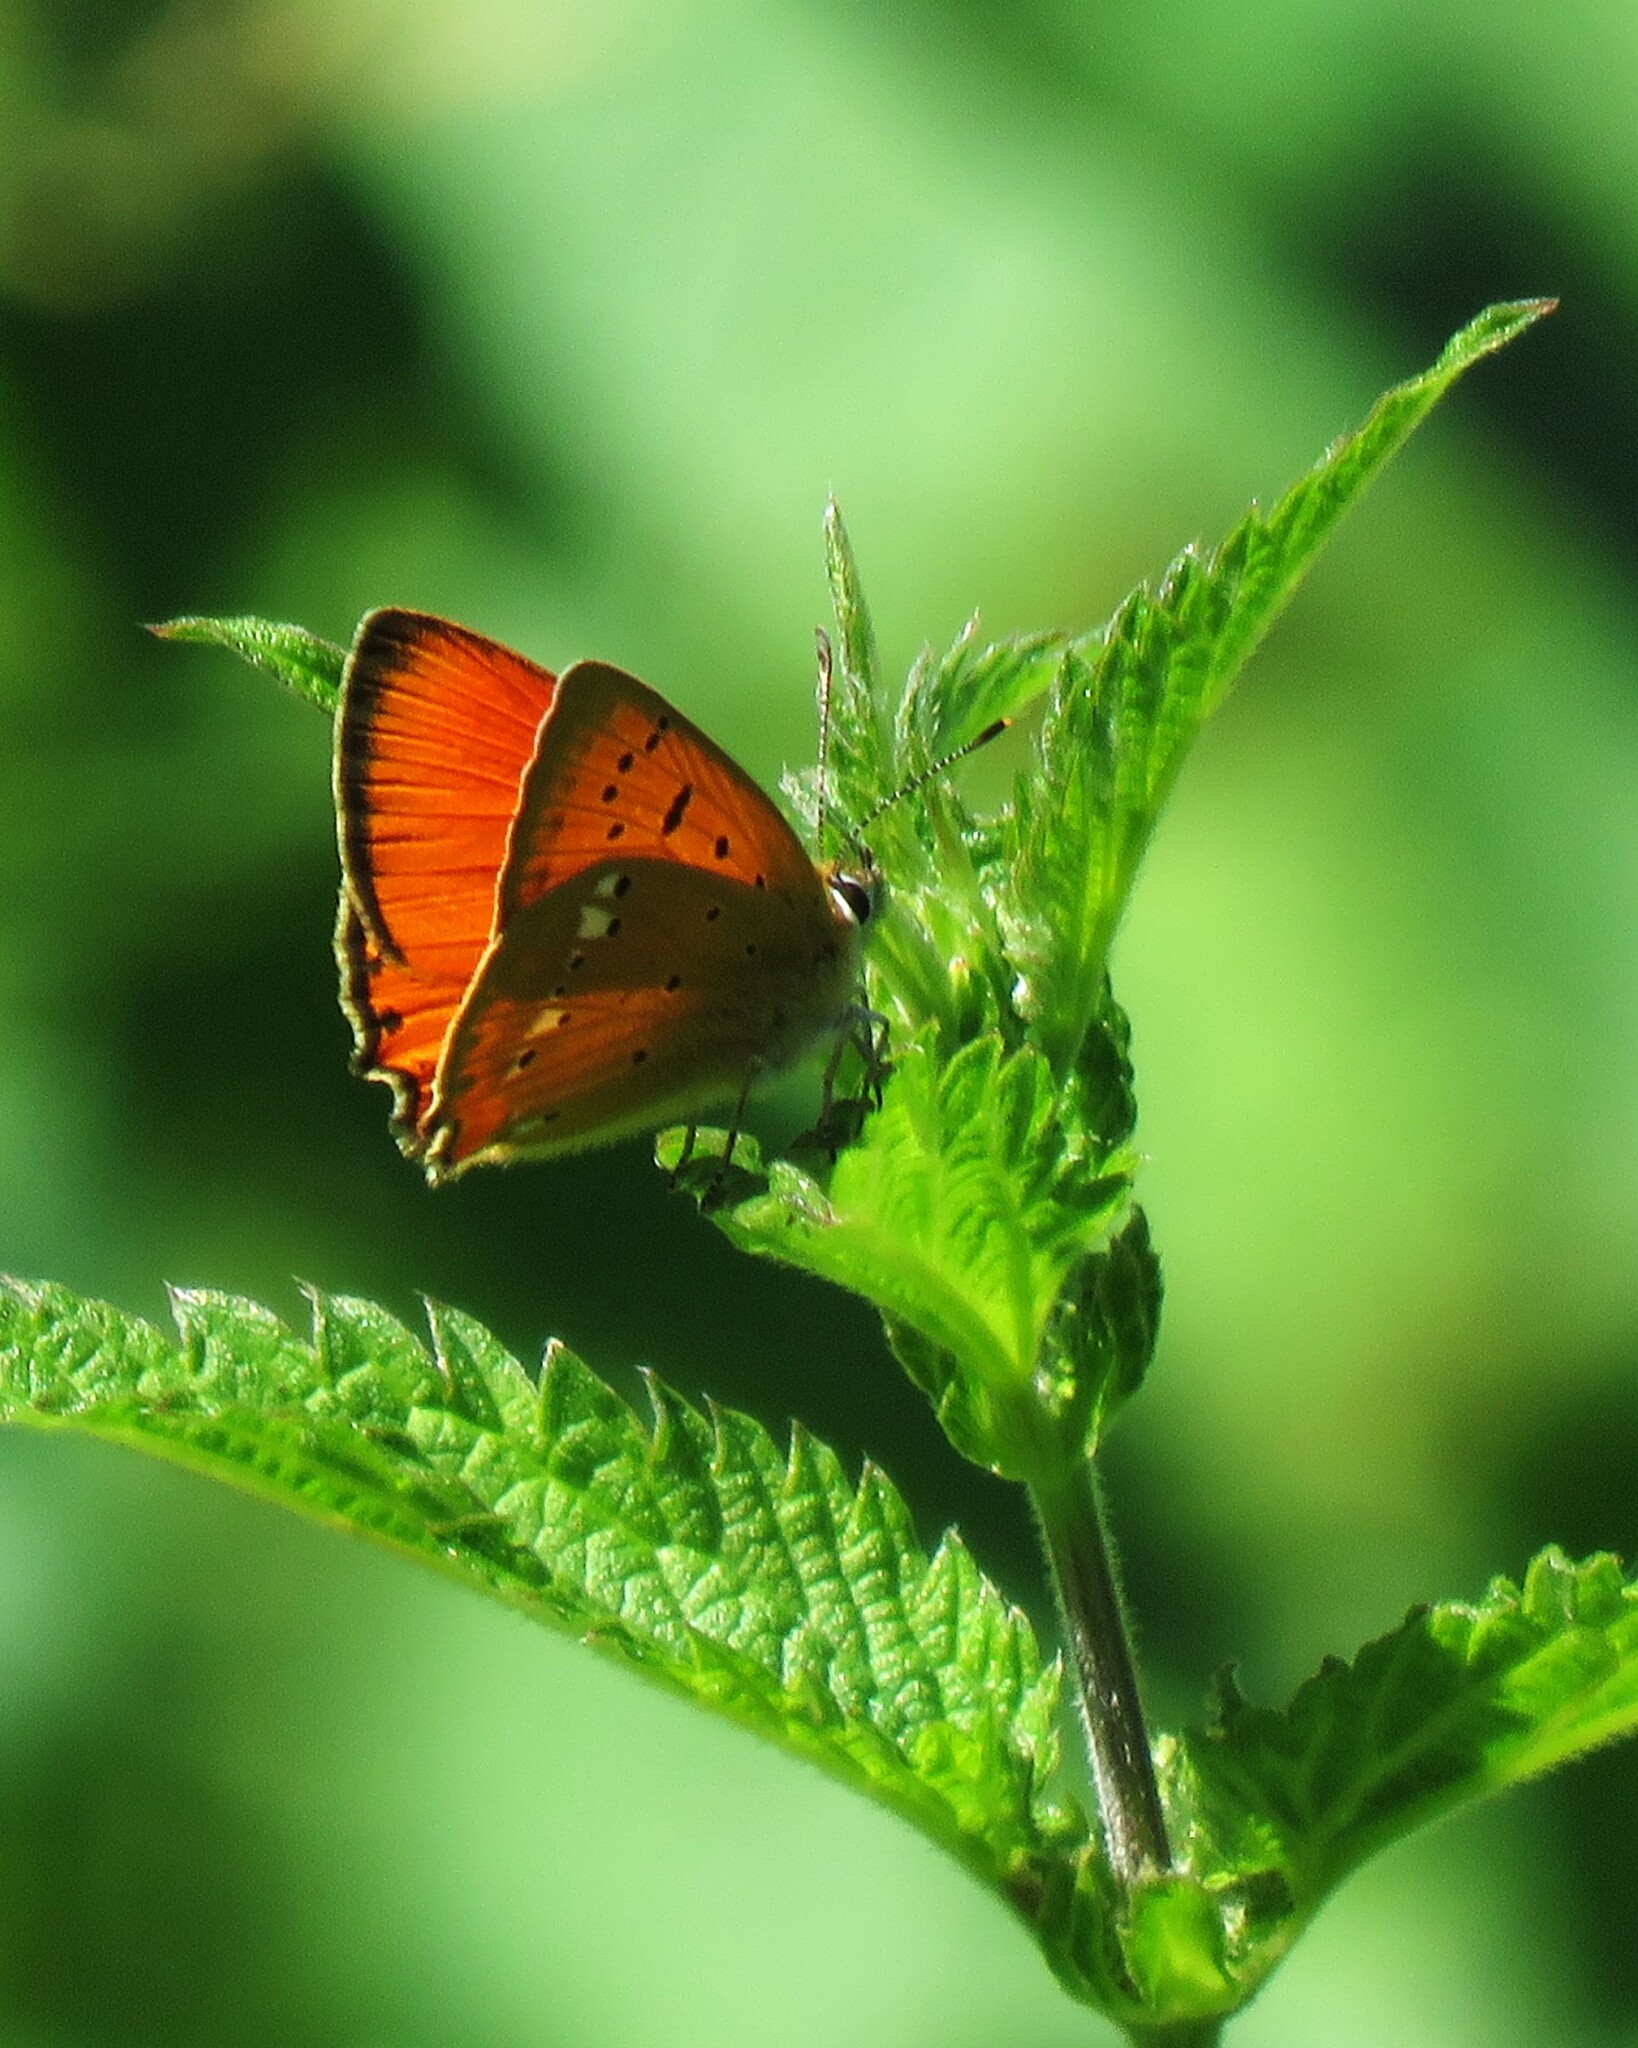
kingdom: Animalia
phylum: Arthropoda
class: Insecta
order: Lepidoptera
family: Lycaenidae
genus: Lycaena
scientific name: Lycaena virgaureae
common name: Scarce copper
